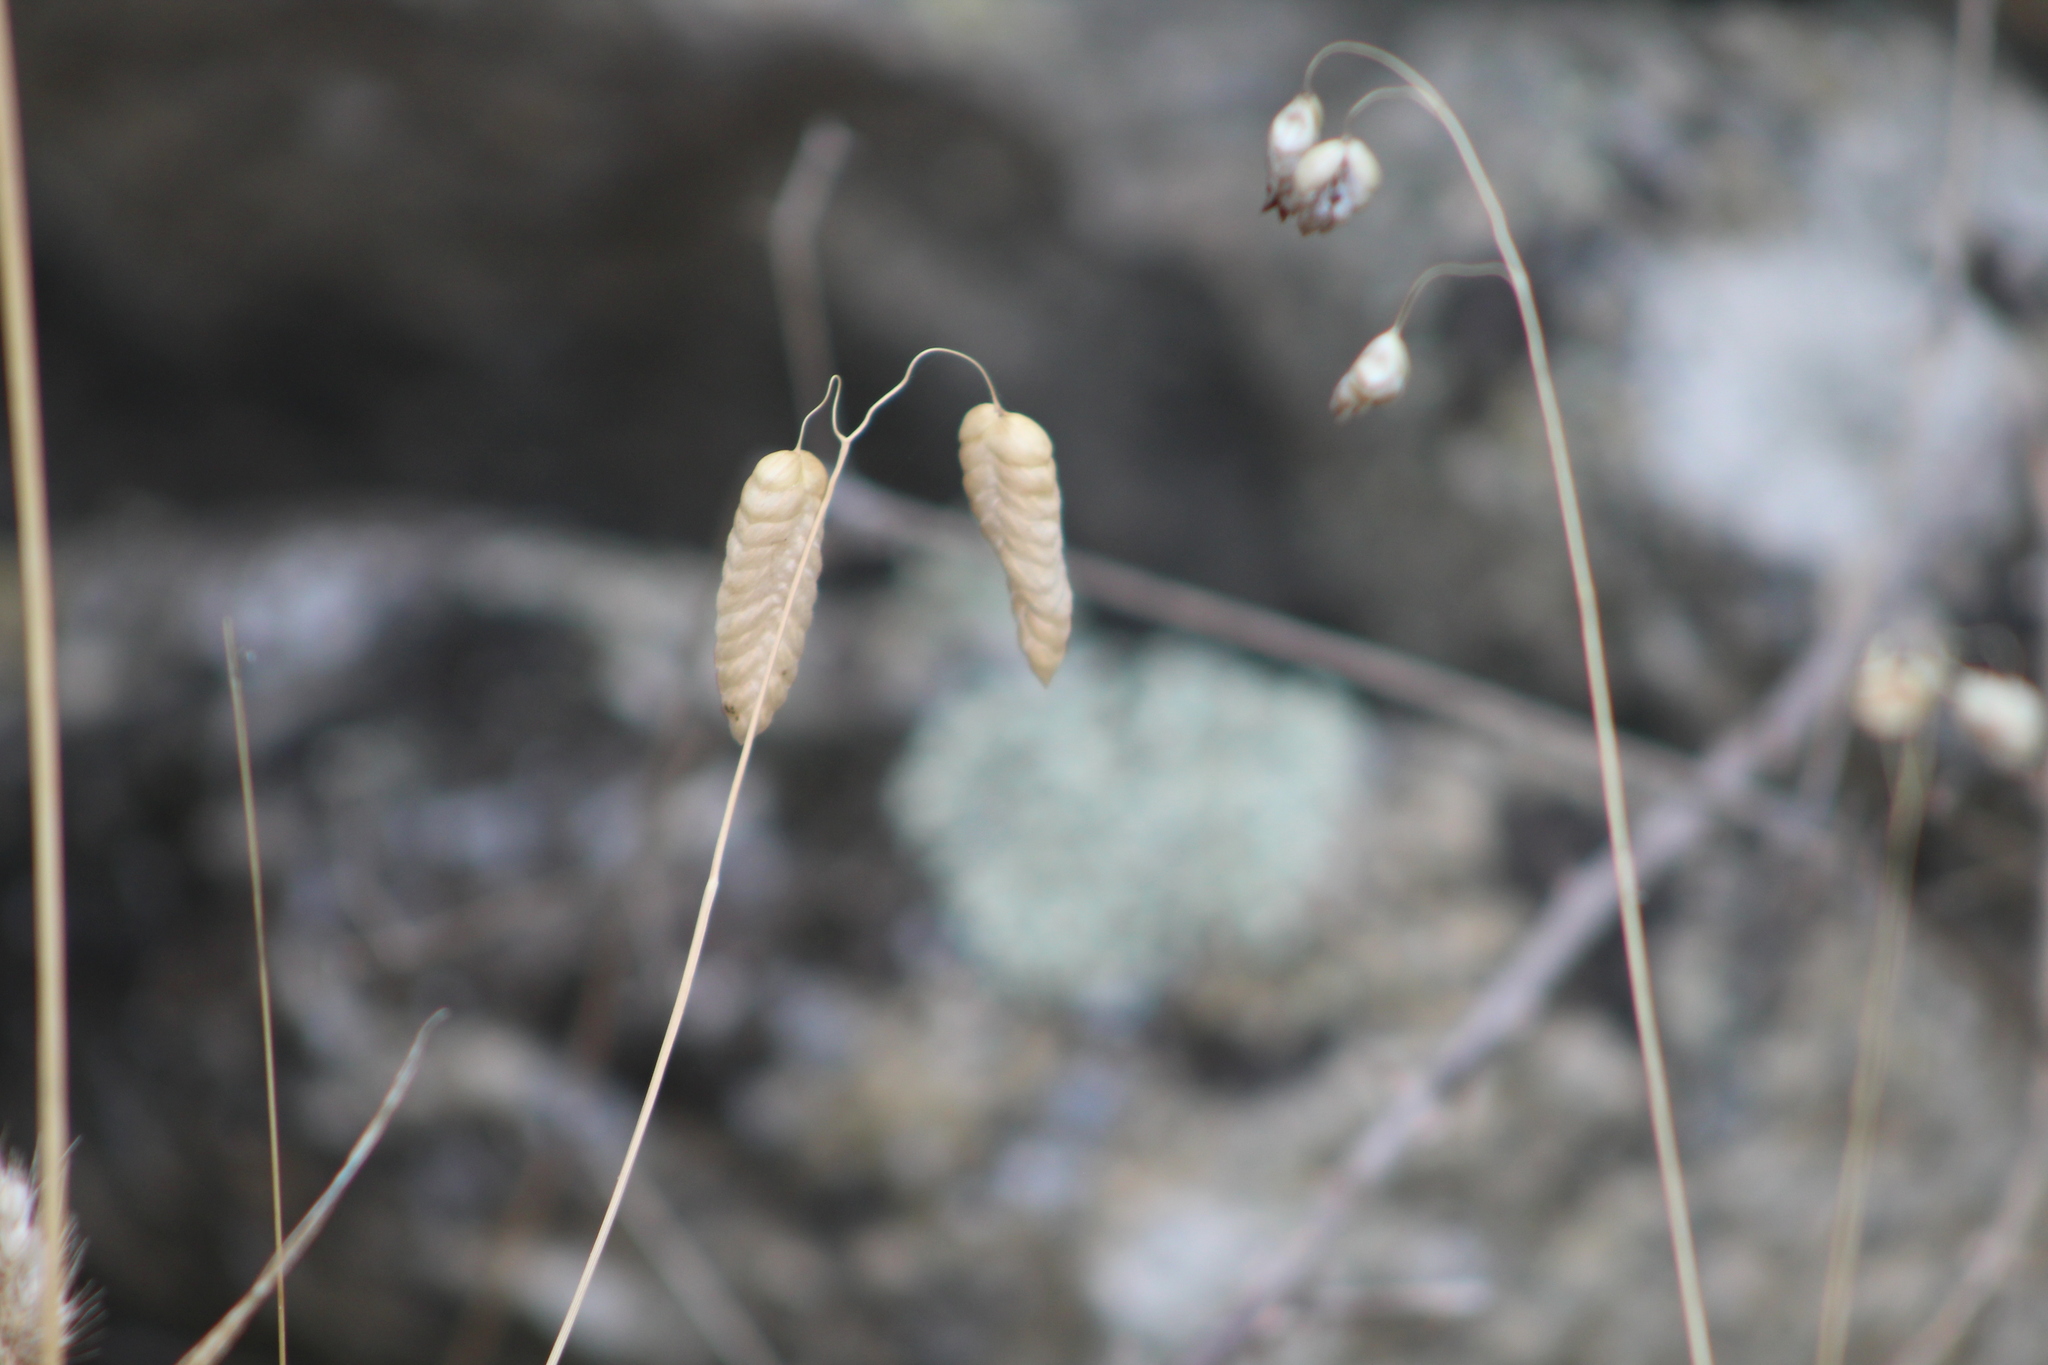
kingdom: Plantae
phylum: Tracheophyta
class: Liliopsida
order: Poales
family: Poaceae
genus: Briza
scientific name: Briza maxima
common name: Big quakinggrass
